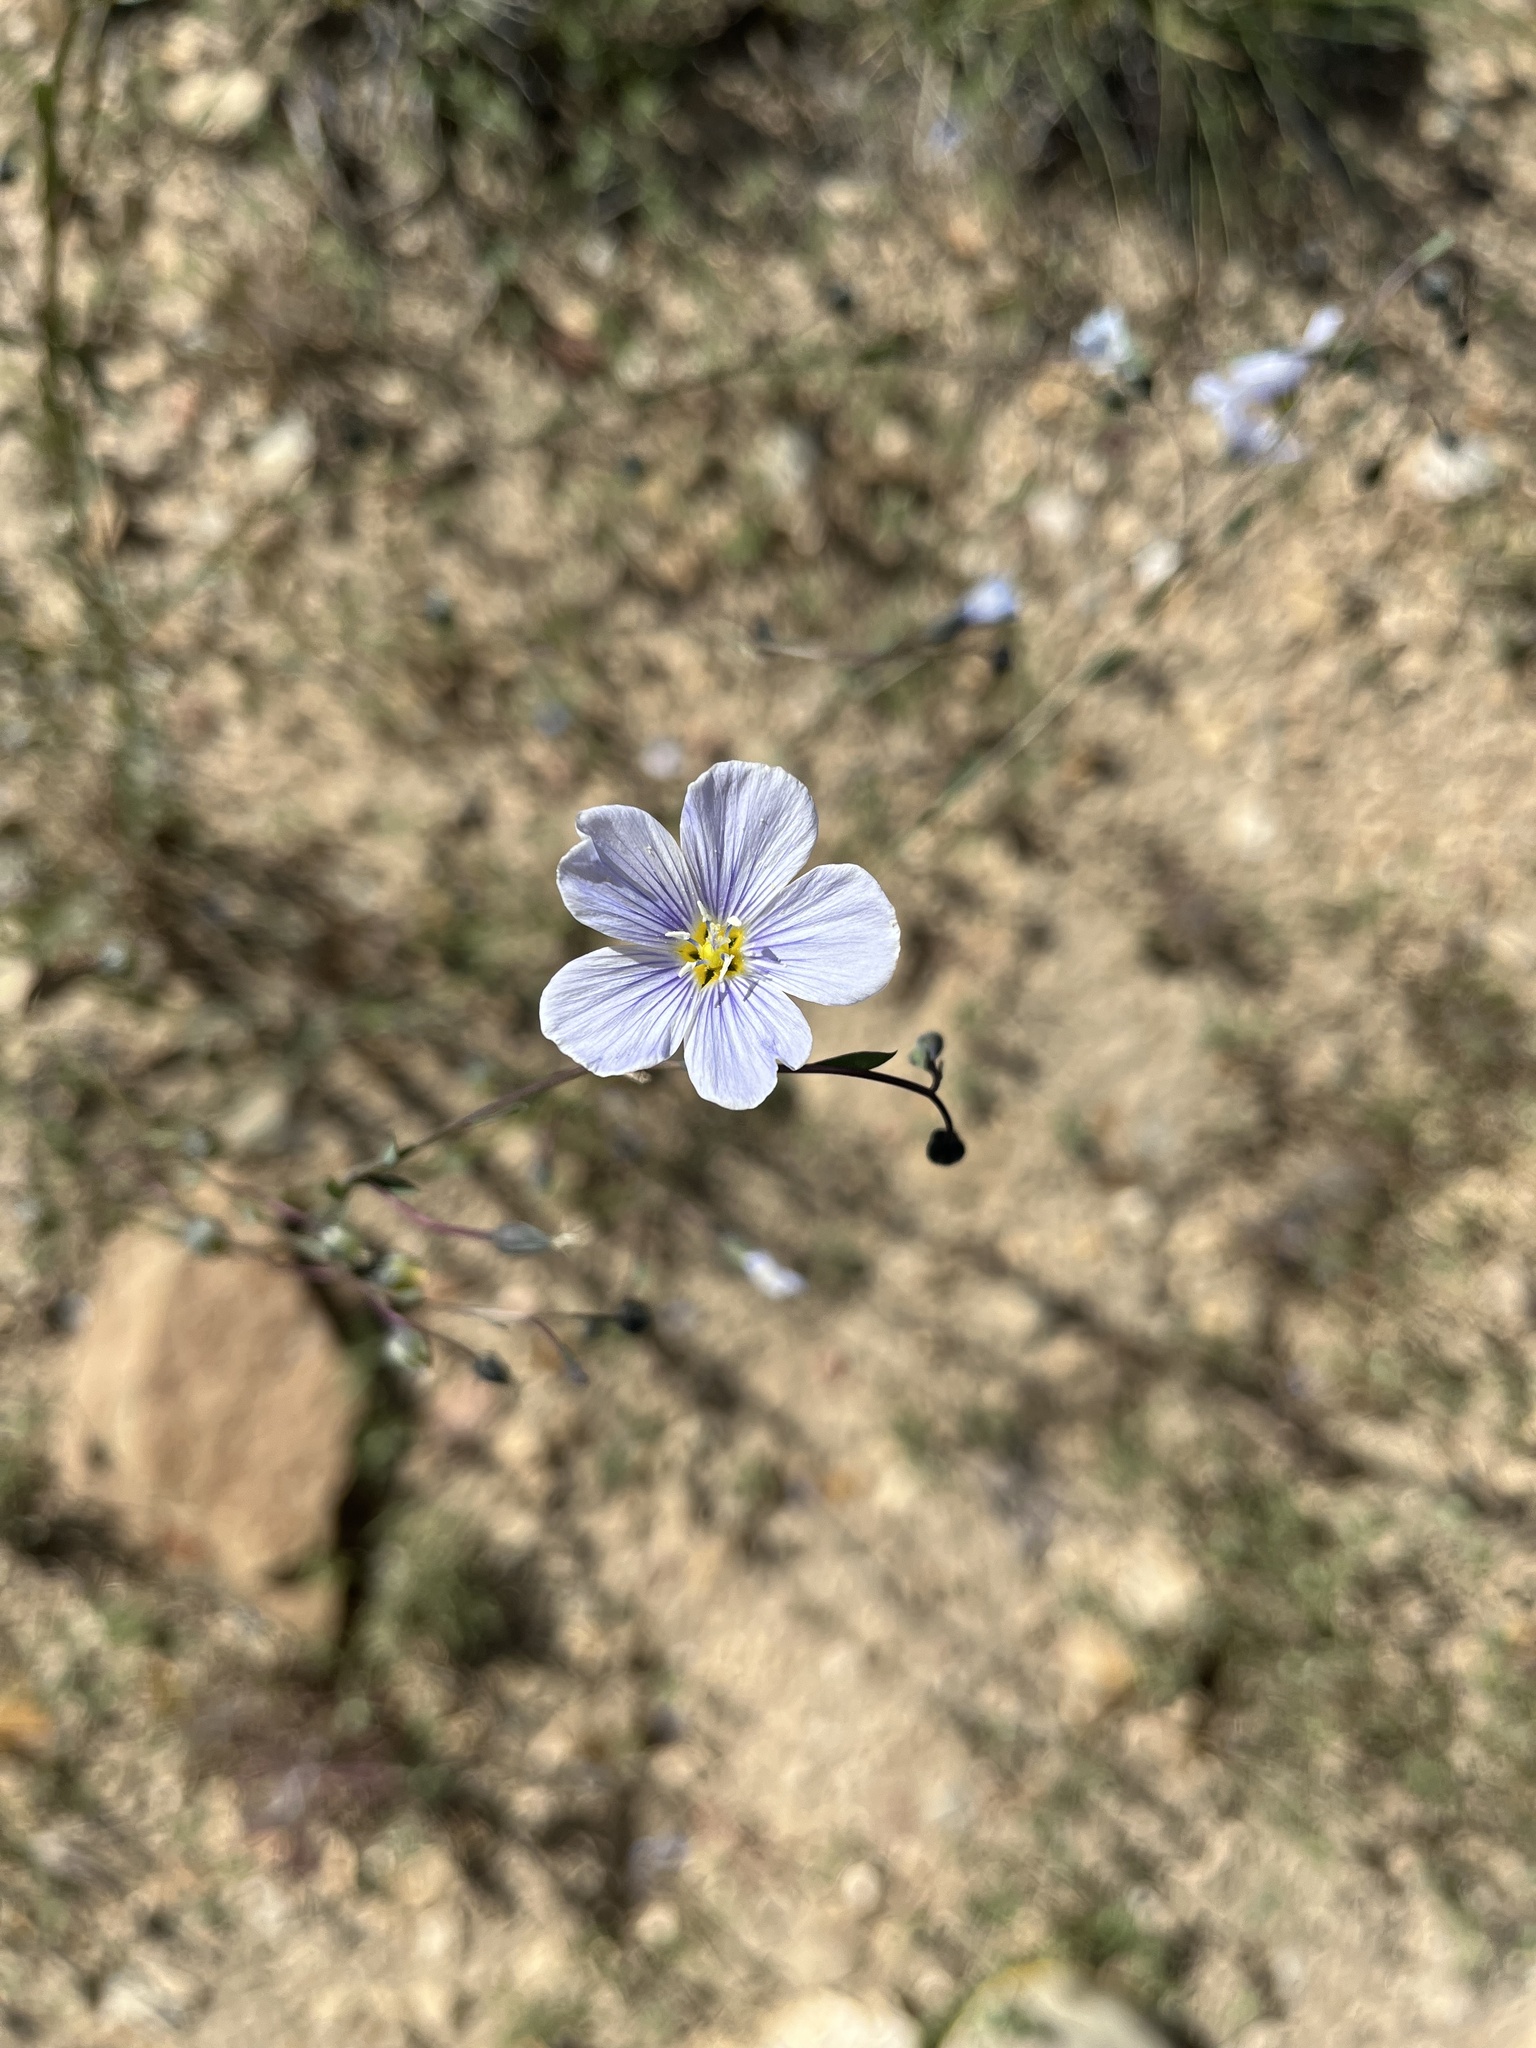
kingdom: Plantae
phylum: Tracheophyta
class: Magnoliopsida
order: Malpighiales
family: Linaceae
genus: Linum
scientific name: Linum lewisii
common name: Prairie flax
